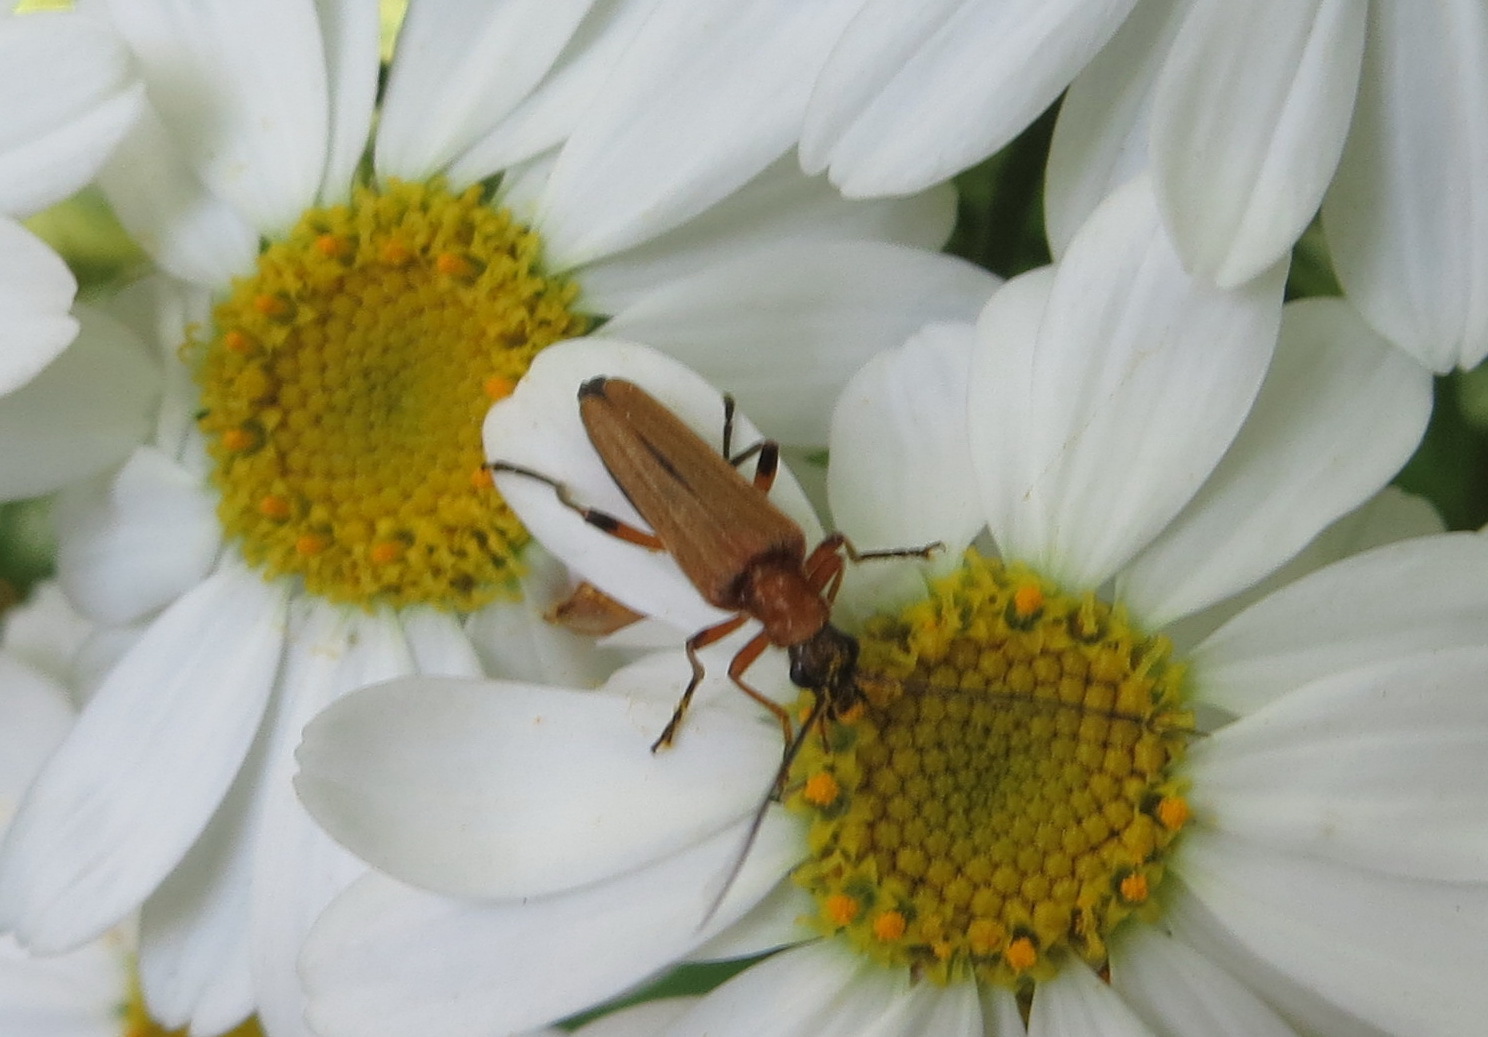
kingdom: Animalia
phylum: Arthropoda
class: Insecta
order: Coleoptera
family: Oedemeridae
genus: Oedemera
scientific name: Oedemera podagrariae
